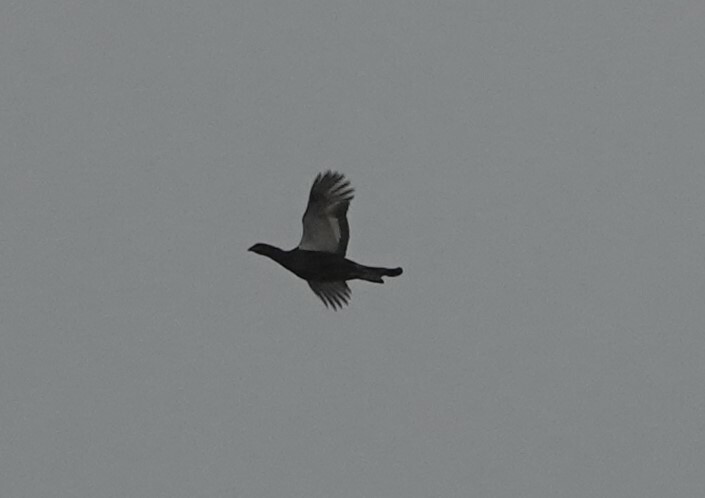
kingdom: Animalia
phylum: Chordata
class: Aves
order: Galliformes
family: Phasianidae
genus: Lyrurus
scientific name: Lyrurus tetrix
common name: Black grouse
